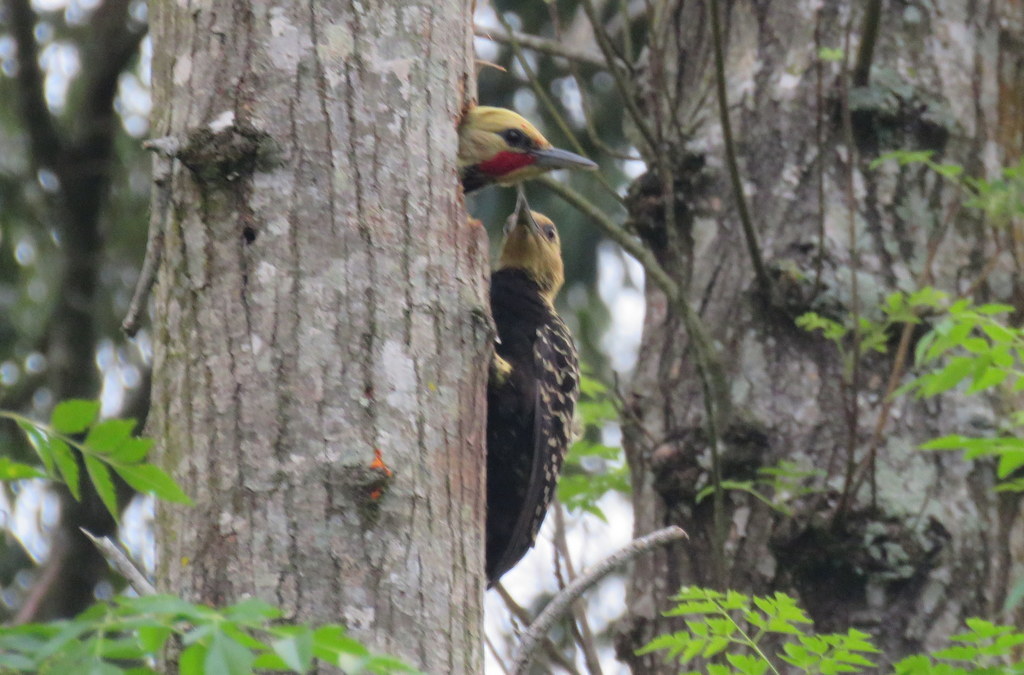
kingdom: Animalia
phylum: Chordata
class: Aves
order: Piciformes
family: Picidae
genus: Celeus
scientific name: Celeus flavescens
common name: Blond-crested woodpecker
